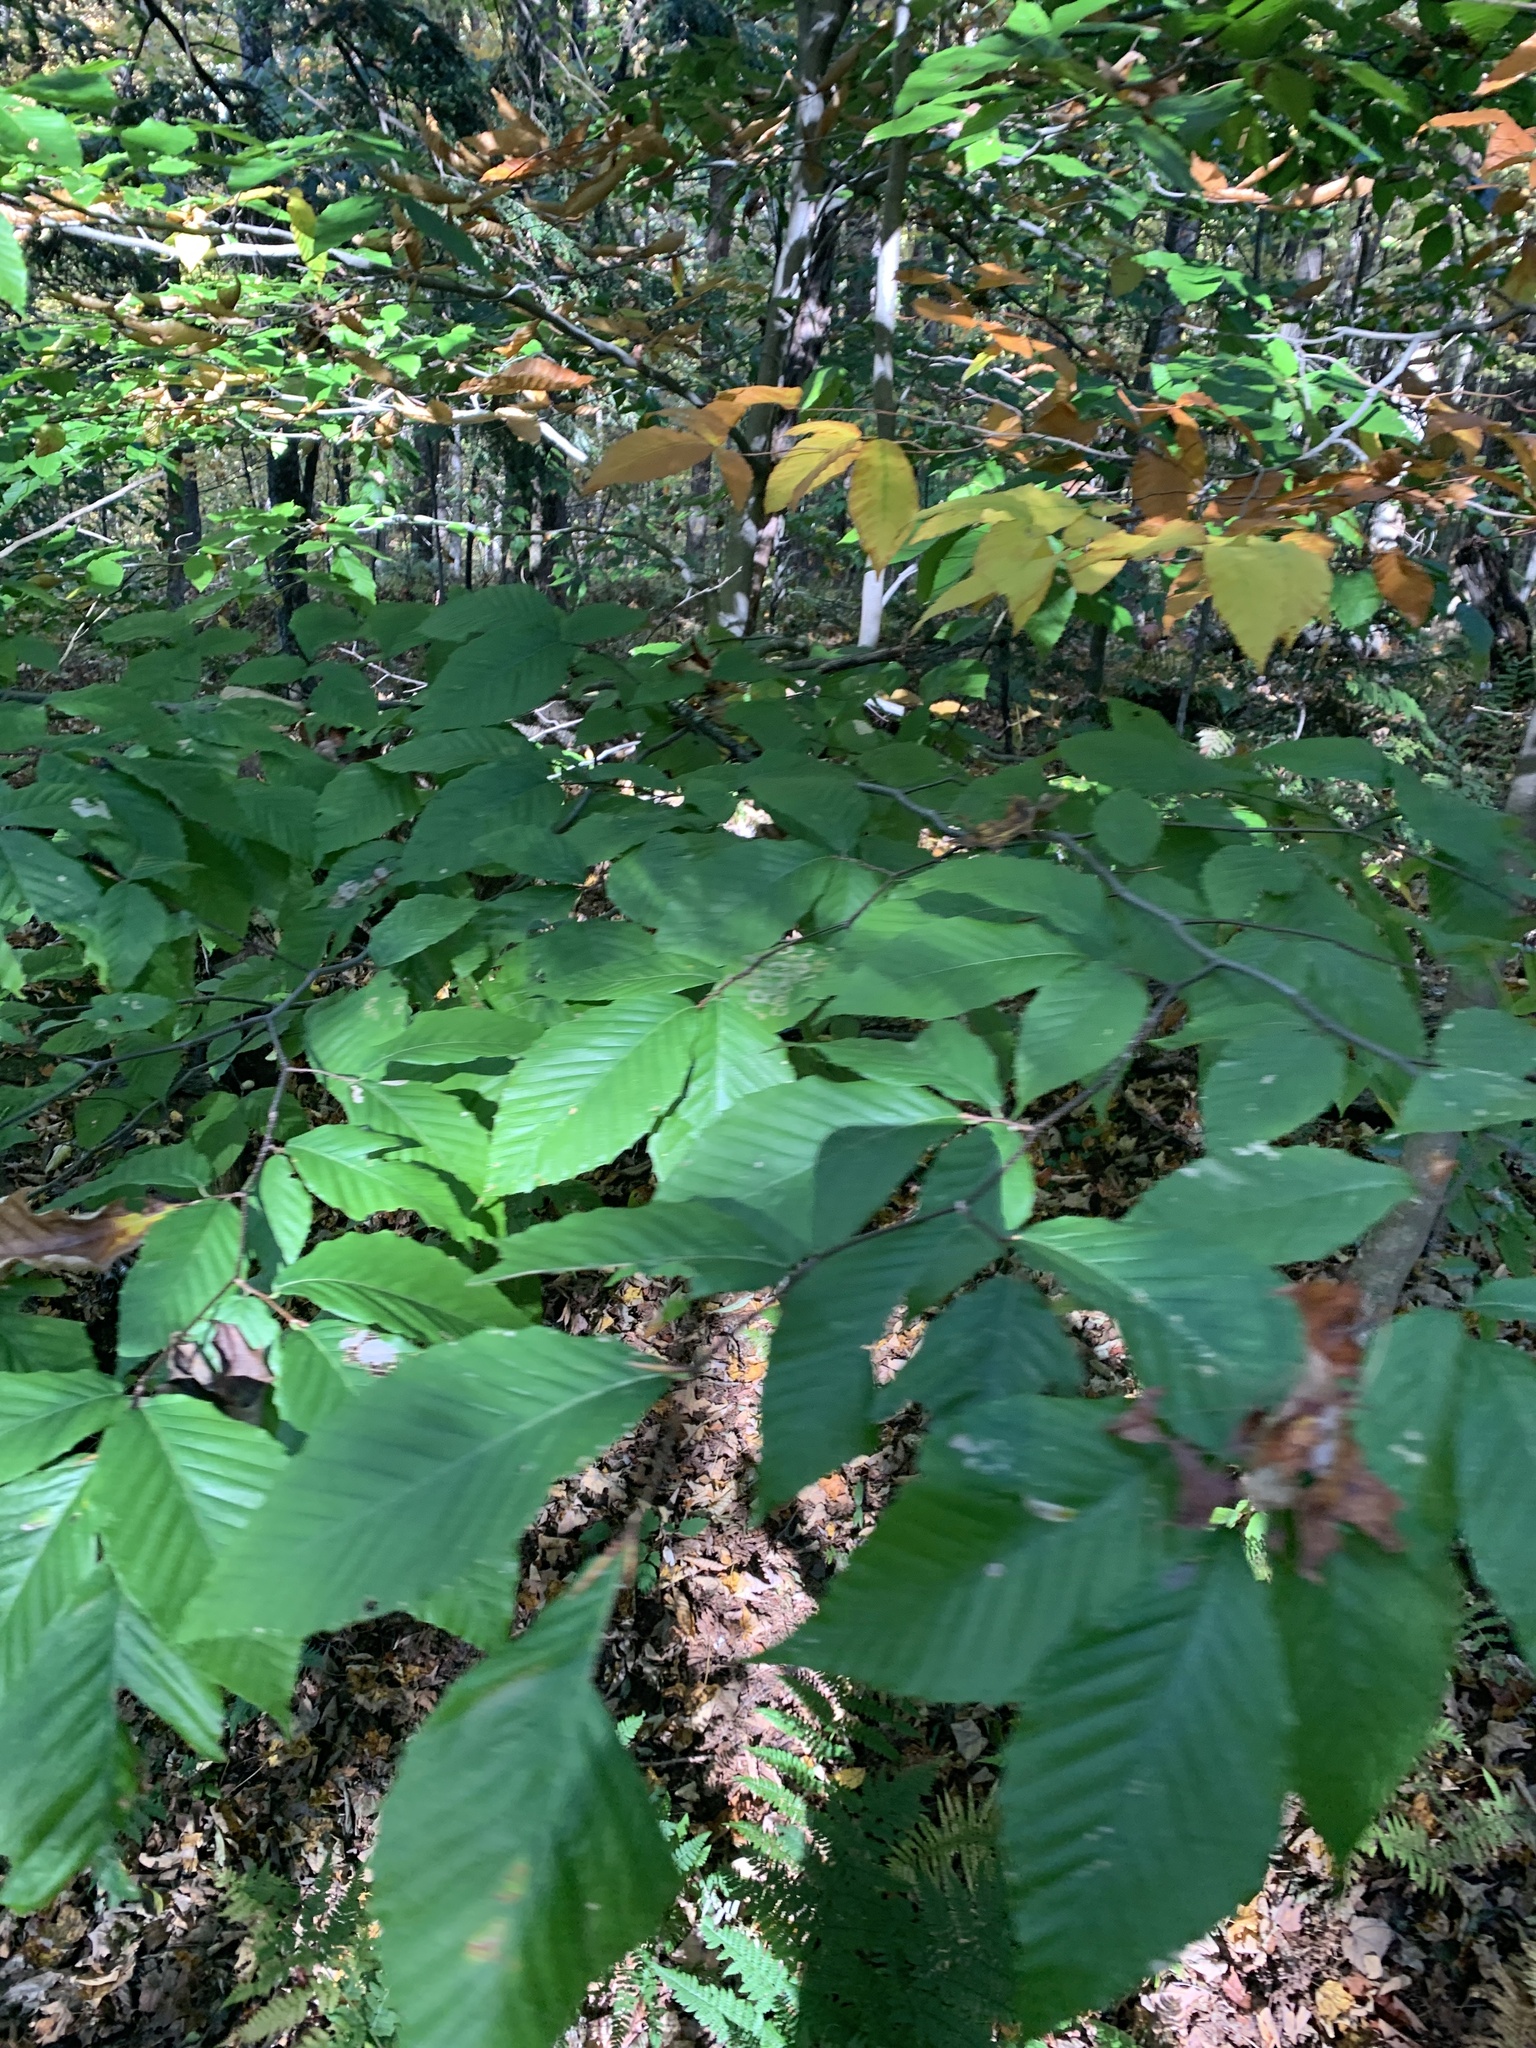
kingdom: Plantae
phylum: Tracheophyta
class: Magnoliopsida
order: Fagales
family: Fagaceae
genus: Fagus
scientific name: Fagus grandifolia
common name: American beech
